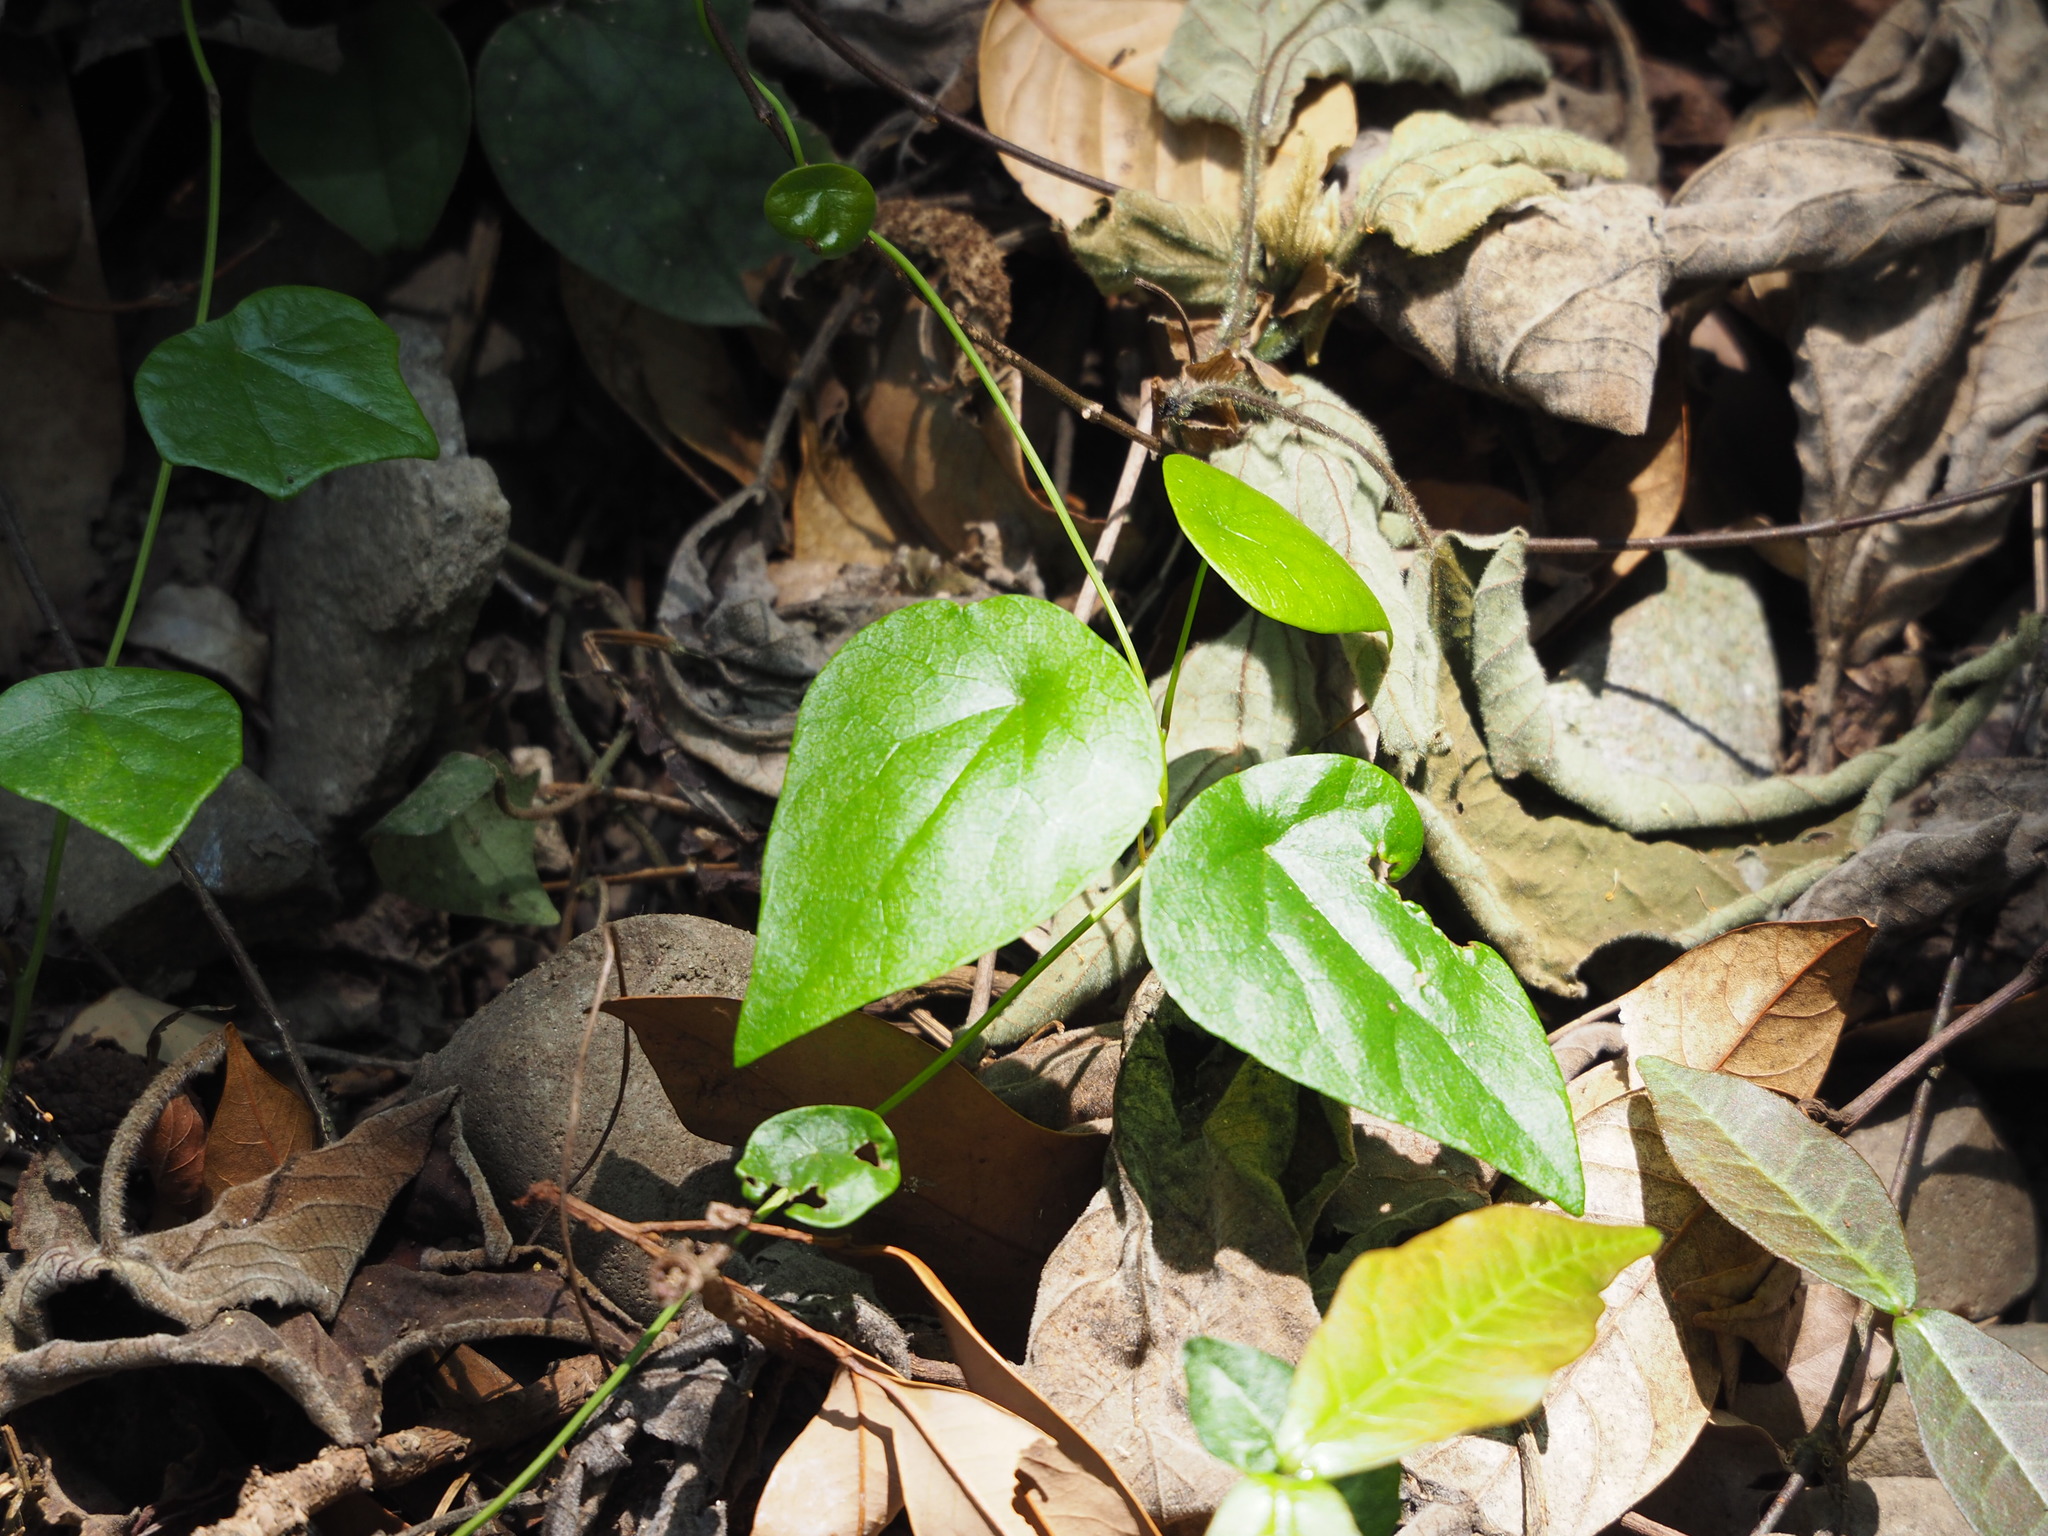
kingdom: Plantae
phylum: Tracheophyta
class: Magnoliopsida
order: Ranunculales
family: Menispermaceae
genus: Stephania
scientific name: Stephania japonica
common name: Snake vine
